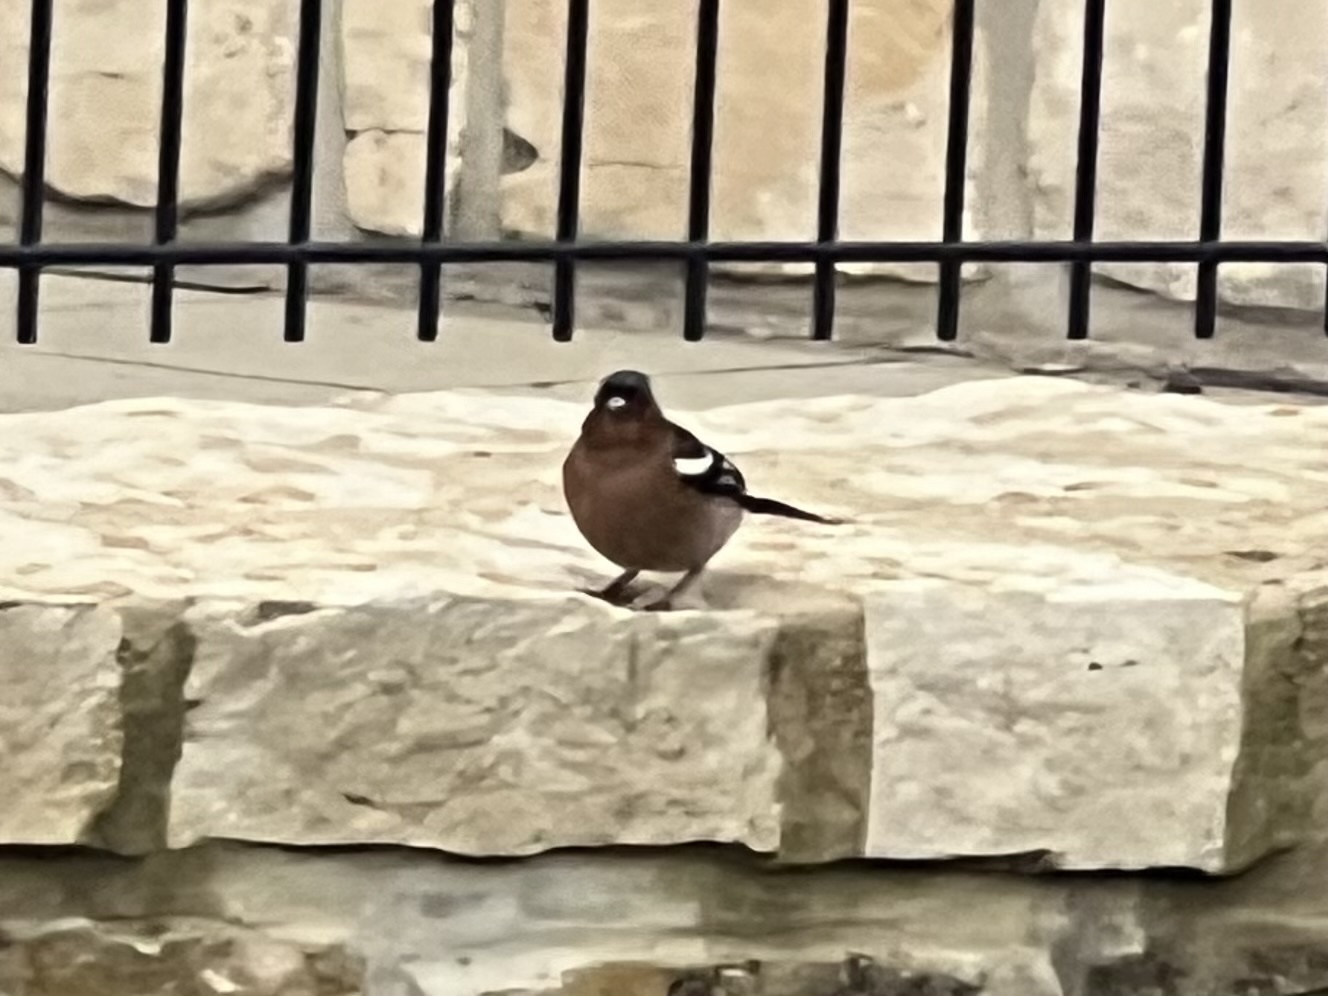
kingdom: Animalia
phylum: Chordata
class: Aves
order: Passeriformes
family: Fringillidae
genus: Fringilla
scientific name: Fringilla coelebs
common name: Common chaffinch
